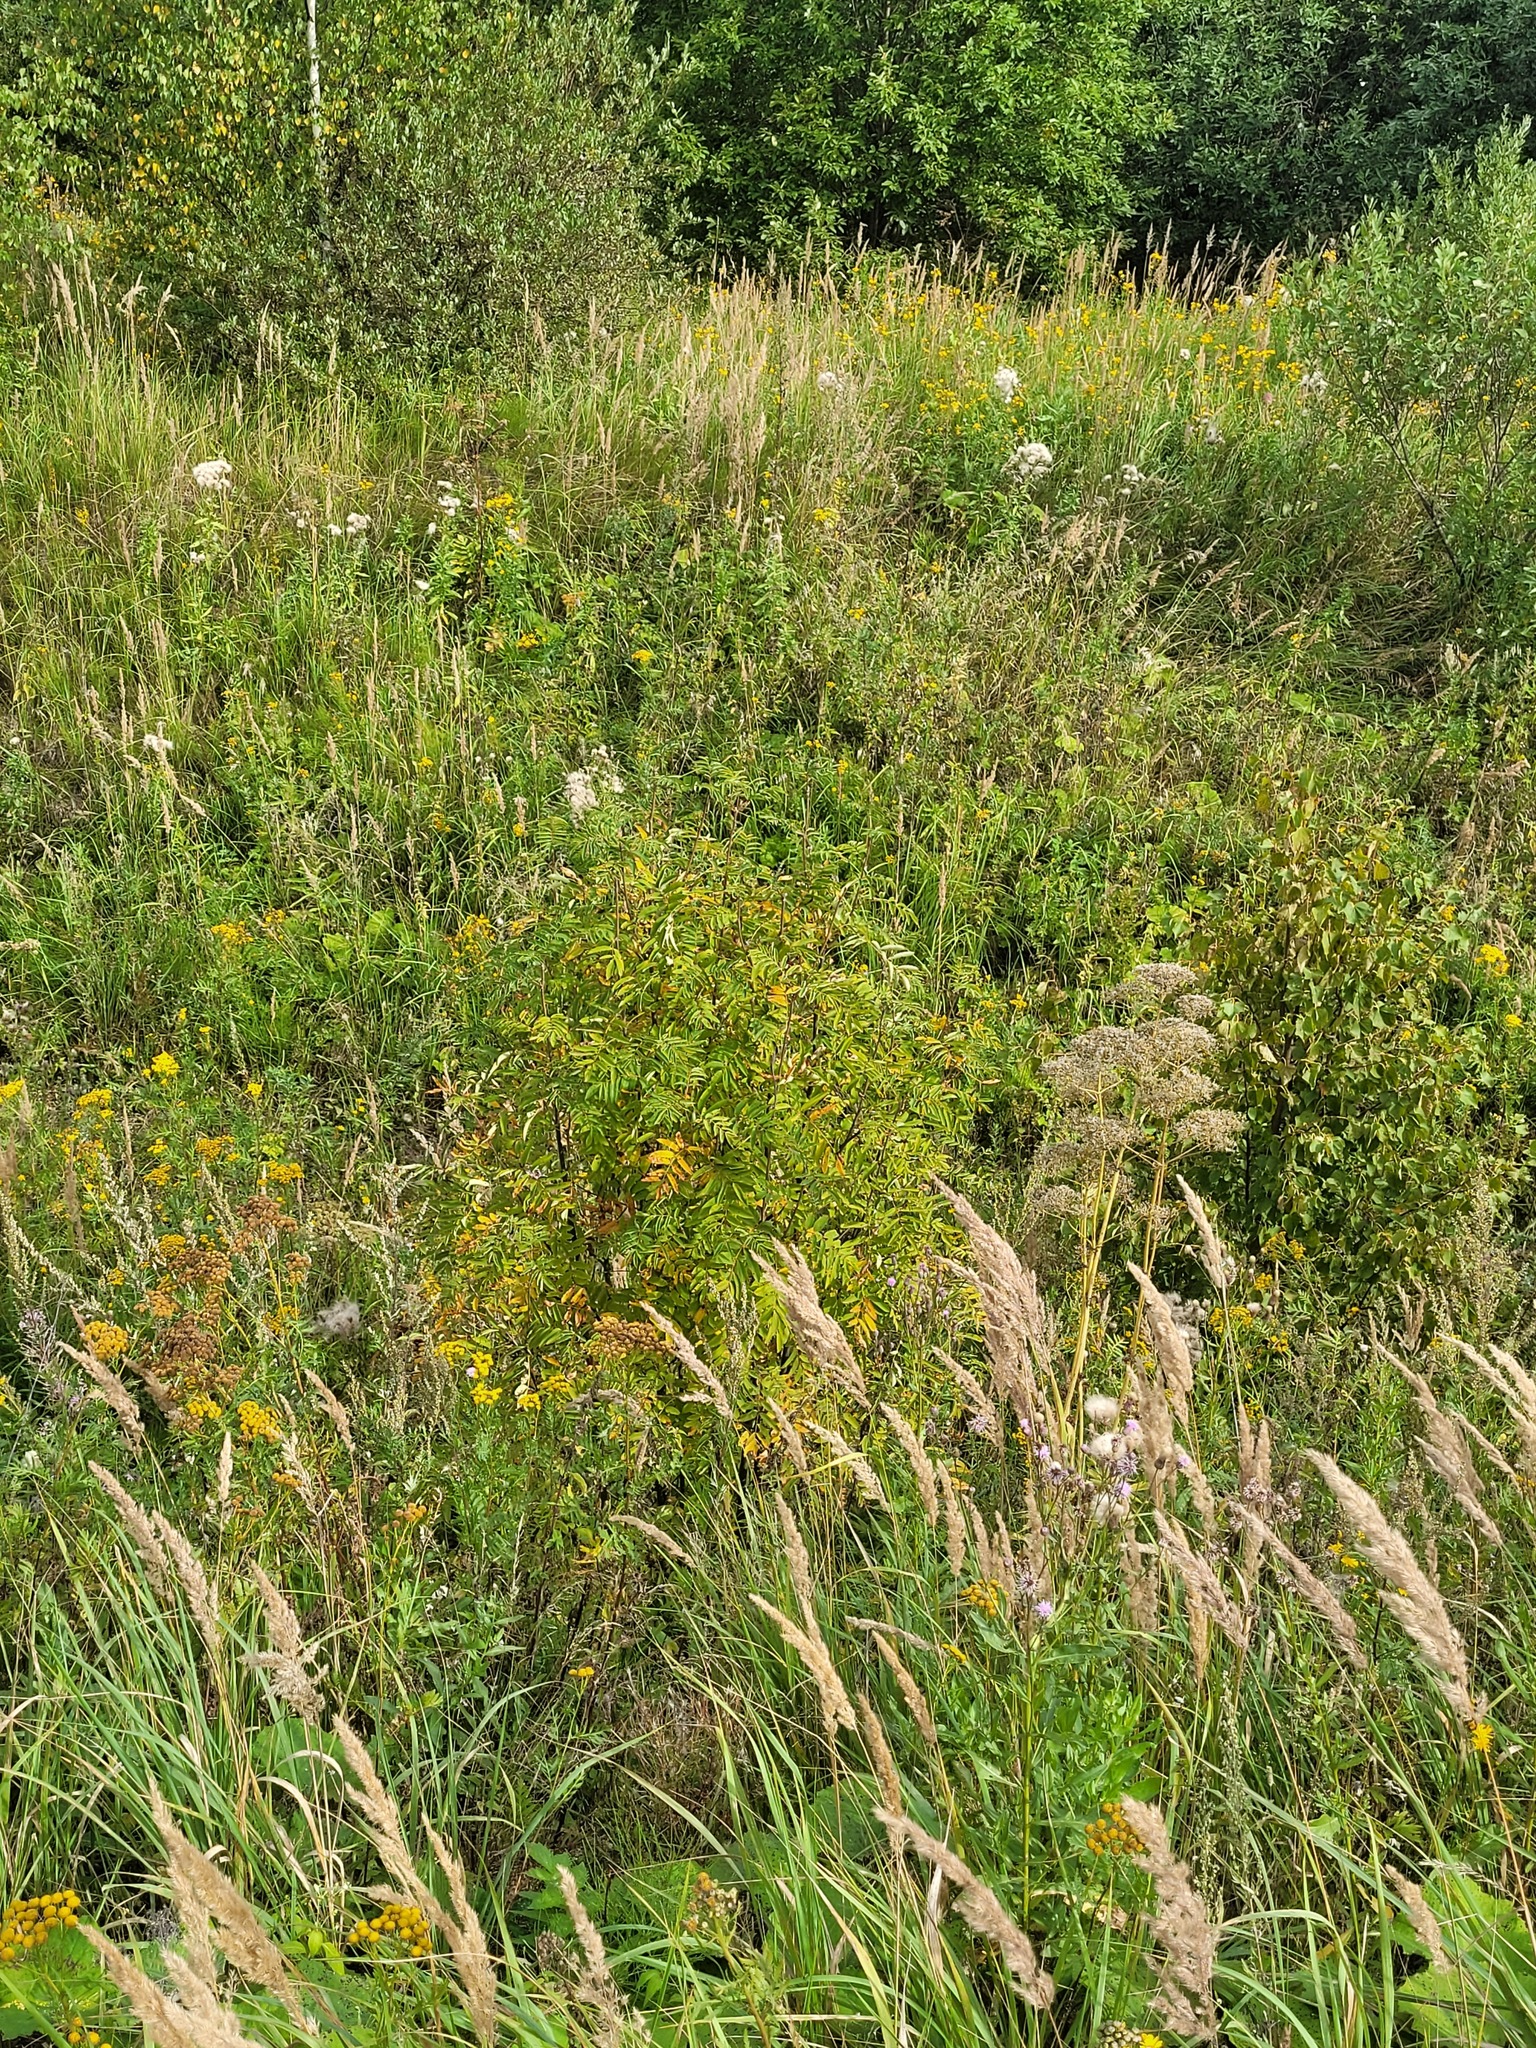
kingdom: Plantae
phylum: Tracheophyta
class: Magnoliopsida
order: Rosales
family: Rosaceae
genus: Sorbus
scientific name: Sorbus aucuparia
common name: Rowan
